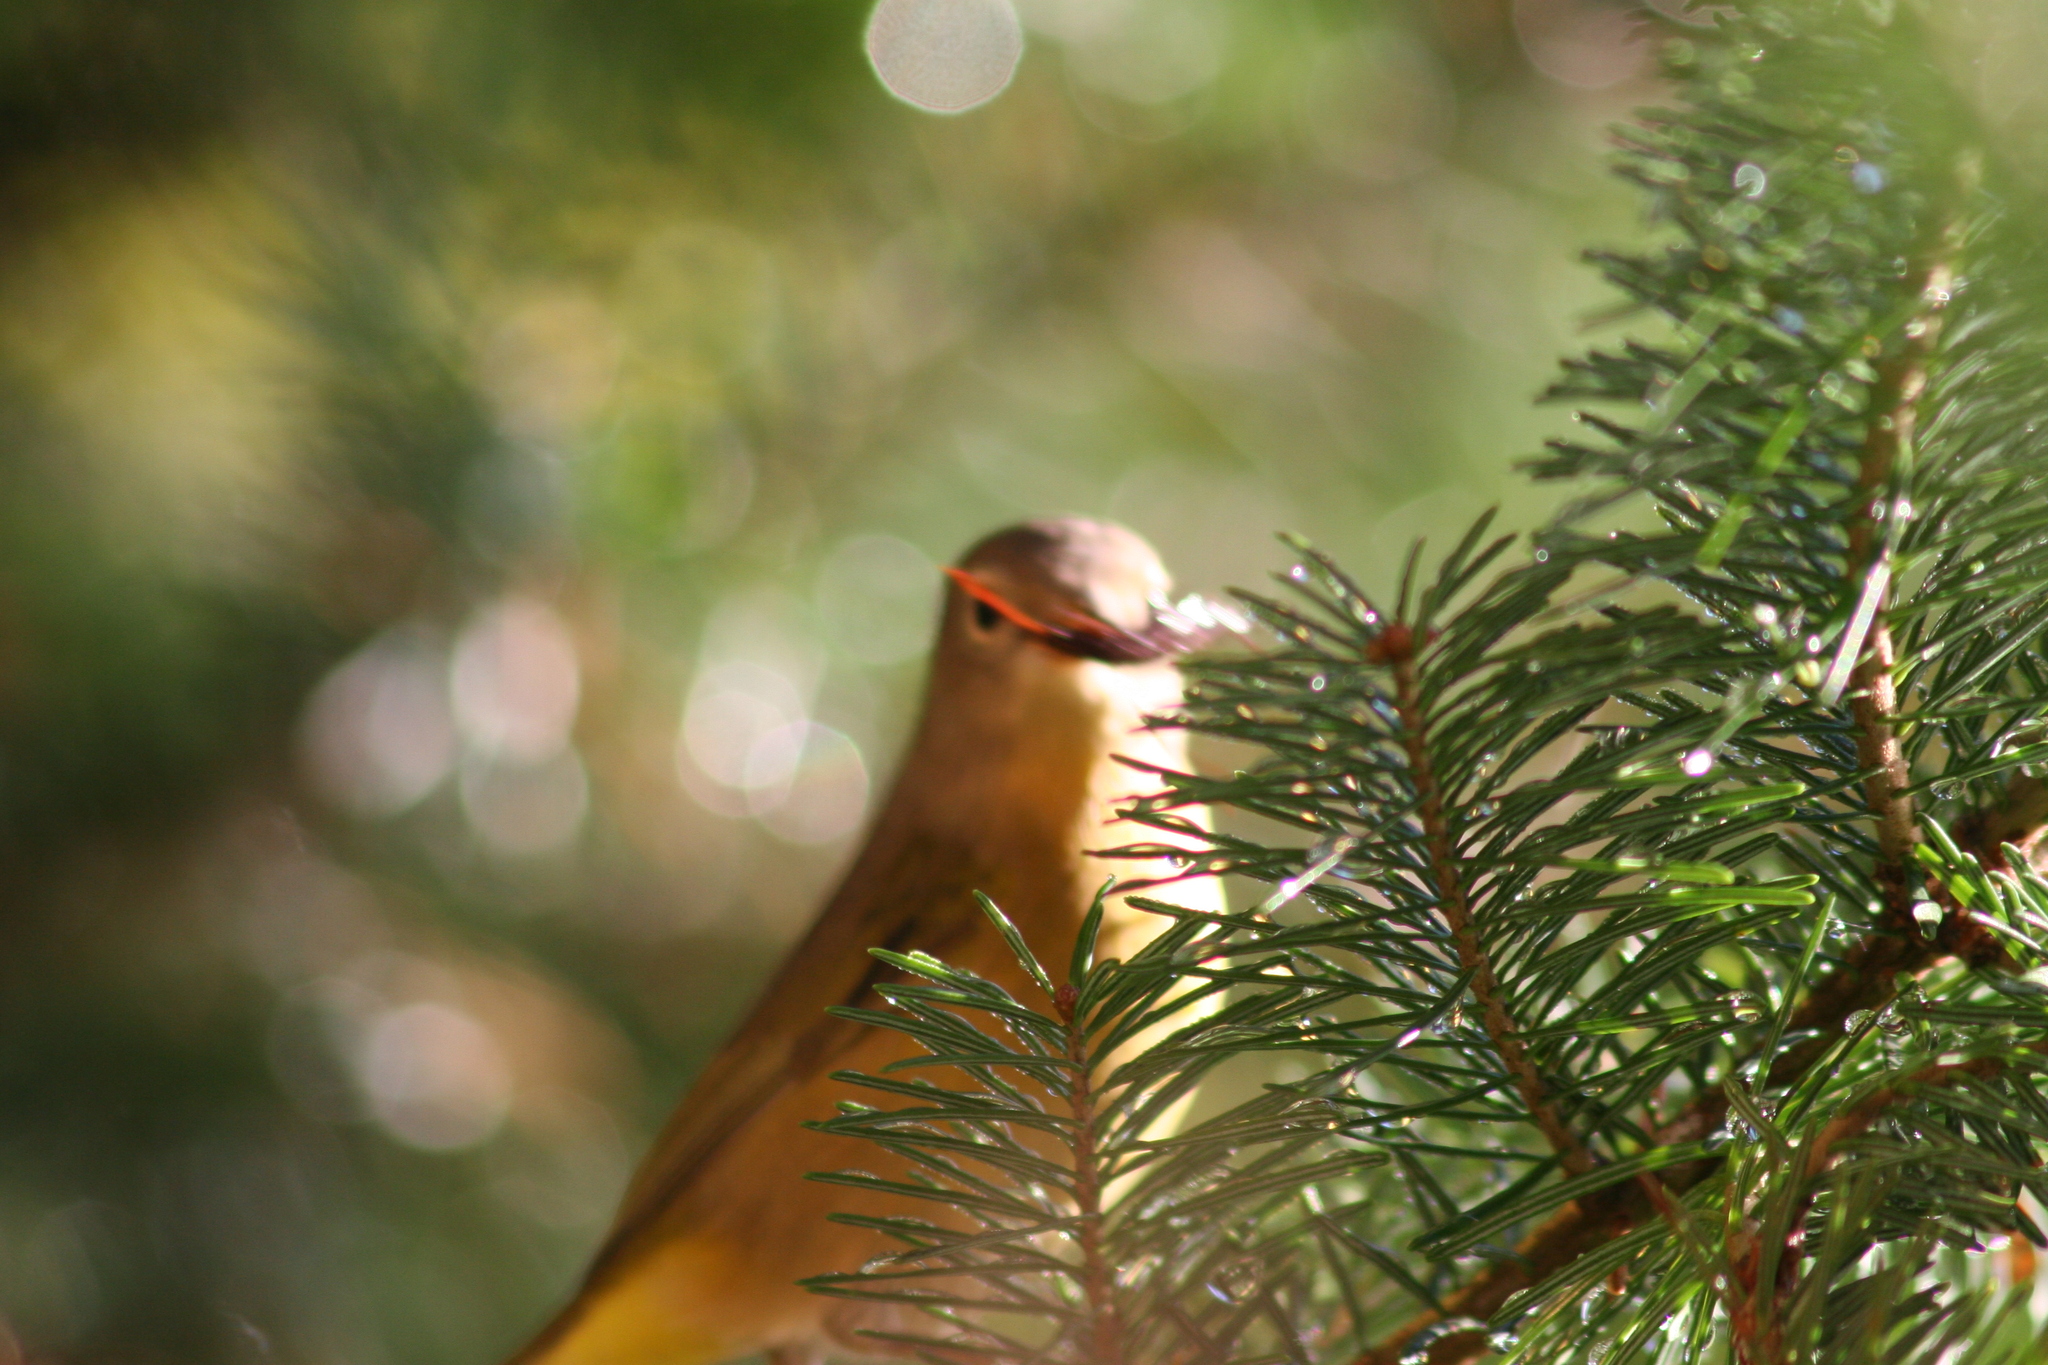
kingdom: Animalia
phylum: Chordata
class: Aves
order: Passeriformes
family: Parulidae
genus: Leiothlypis
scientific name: Leiothlypis ruficapilla
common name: Nashville warbler
